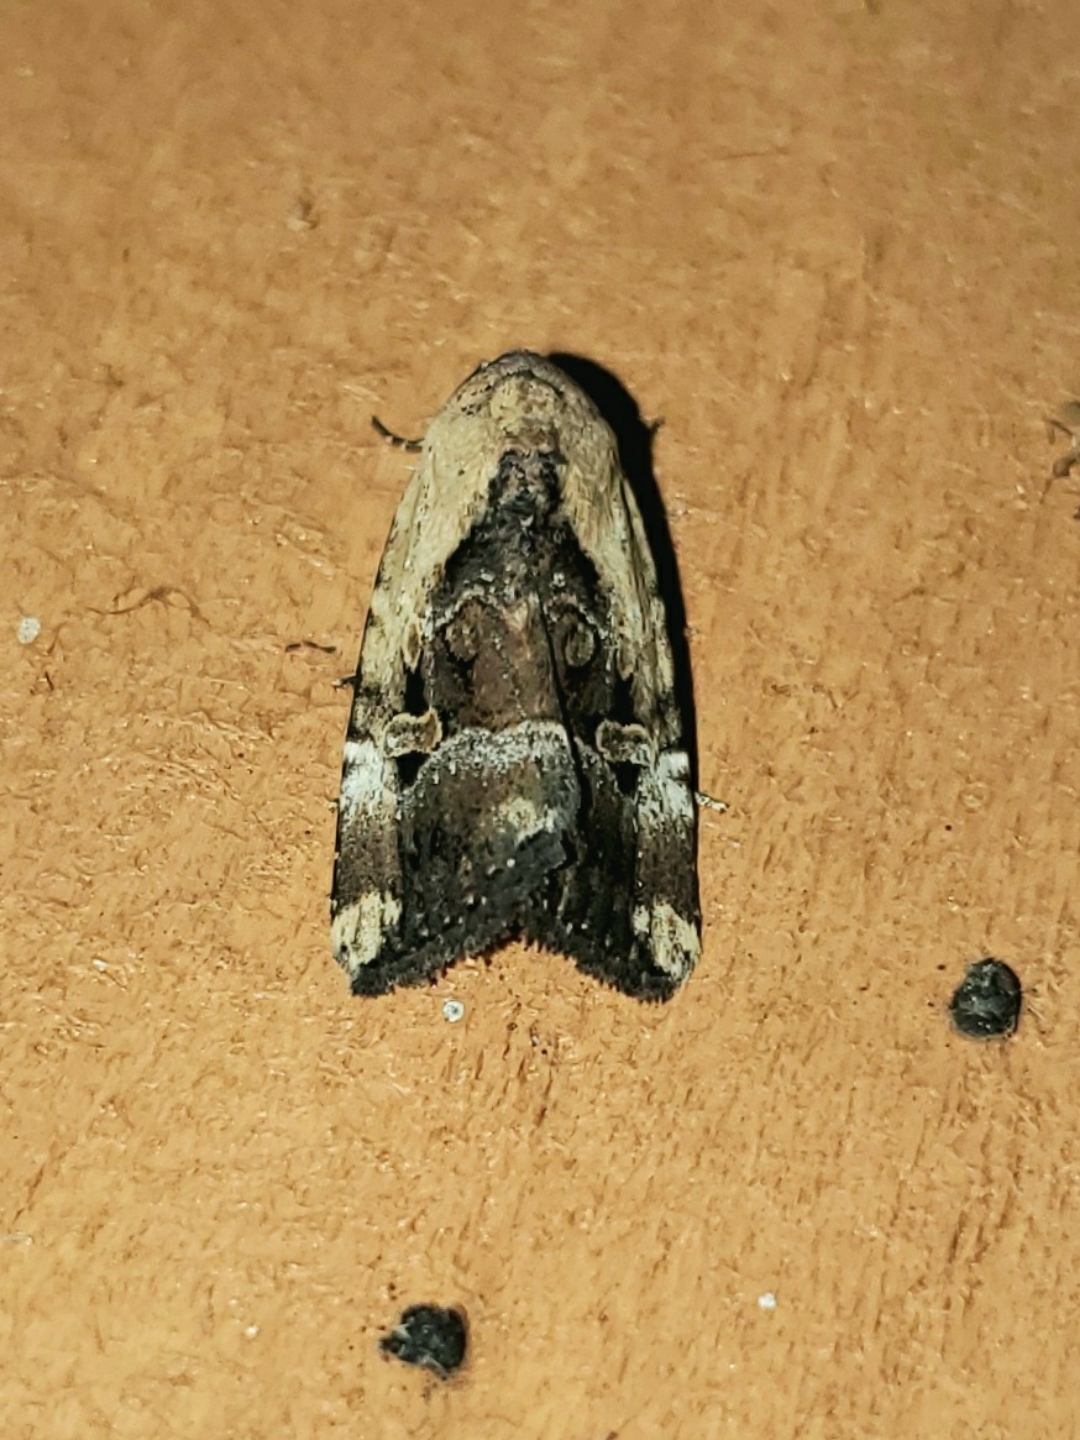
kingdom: Animalia
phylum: Arthropoda
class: Insecta
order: Lepidoptera
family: Noctuidae
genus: Elaphria
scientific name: Elaphria chalcedonia
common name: Chalcedony midget
